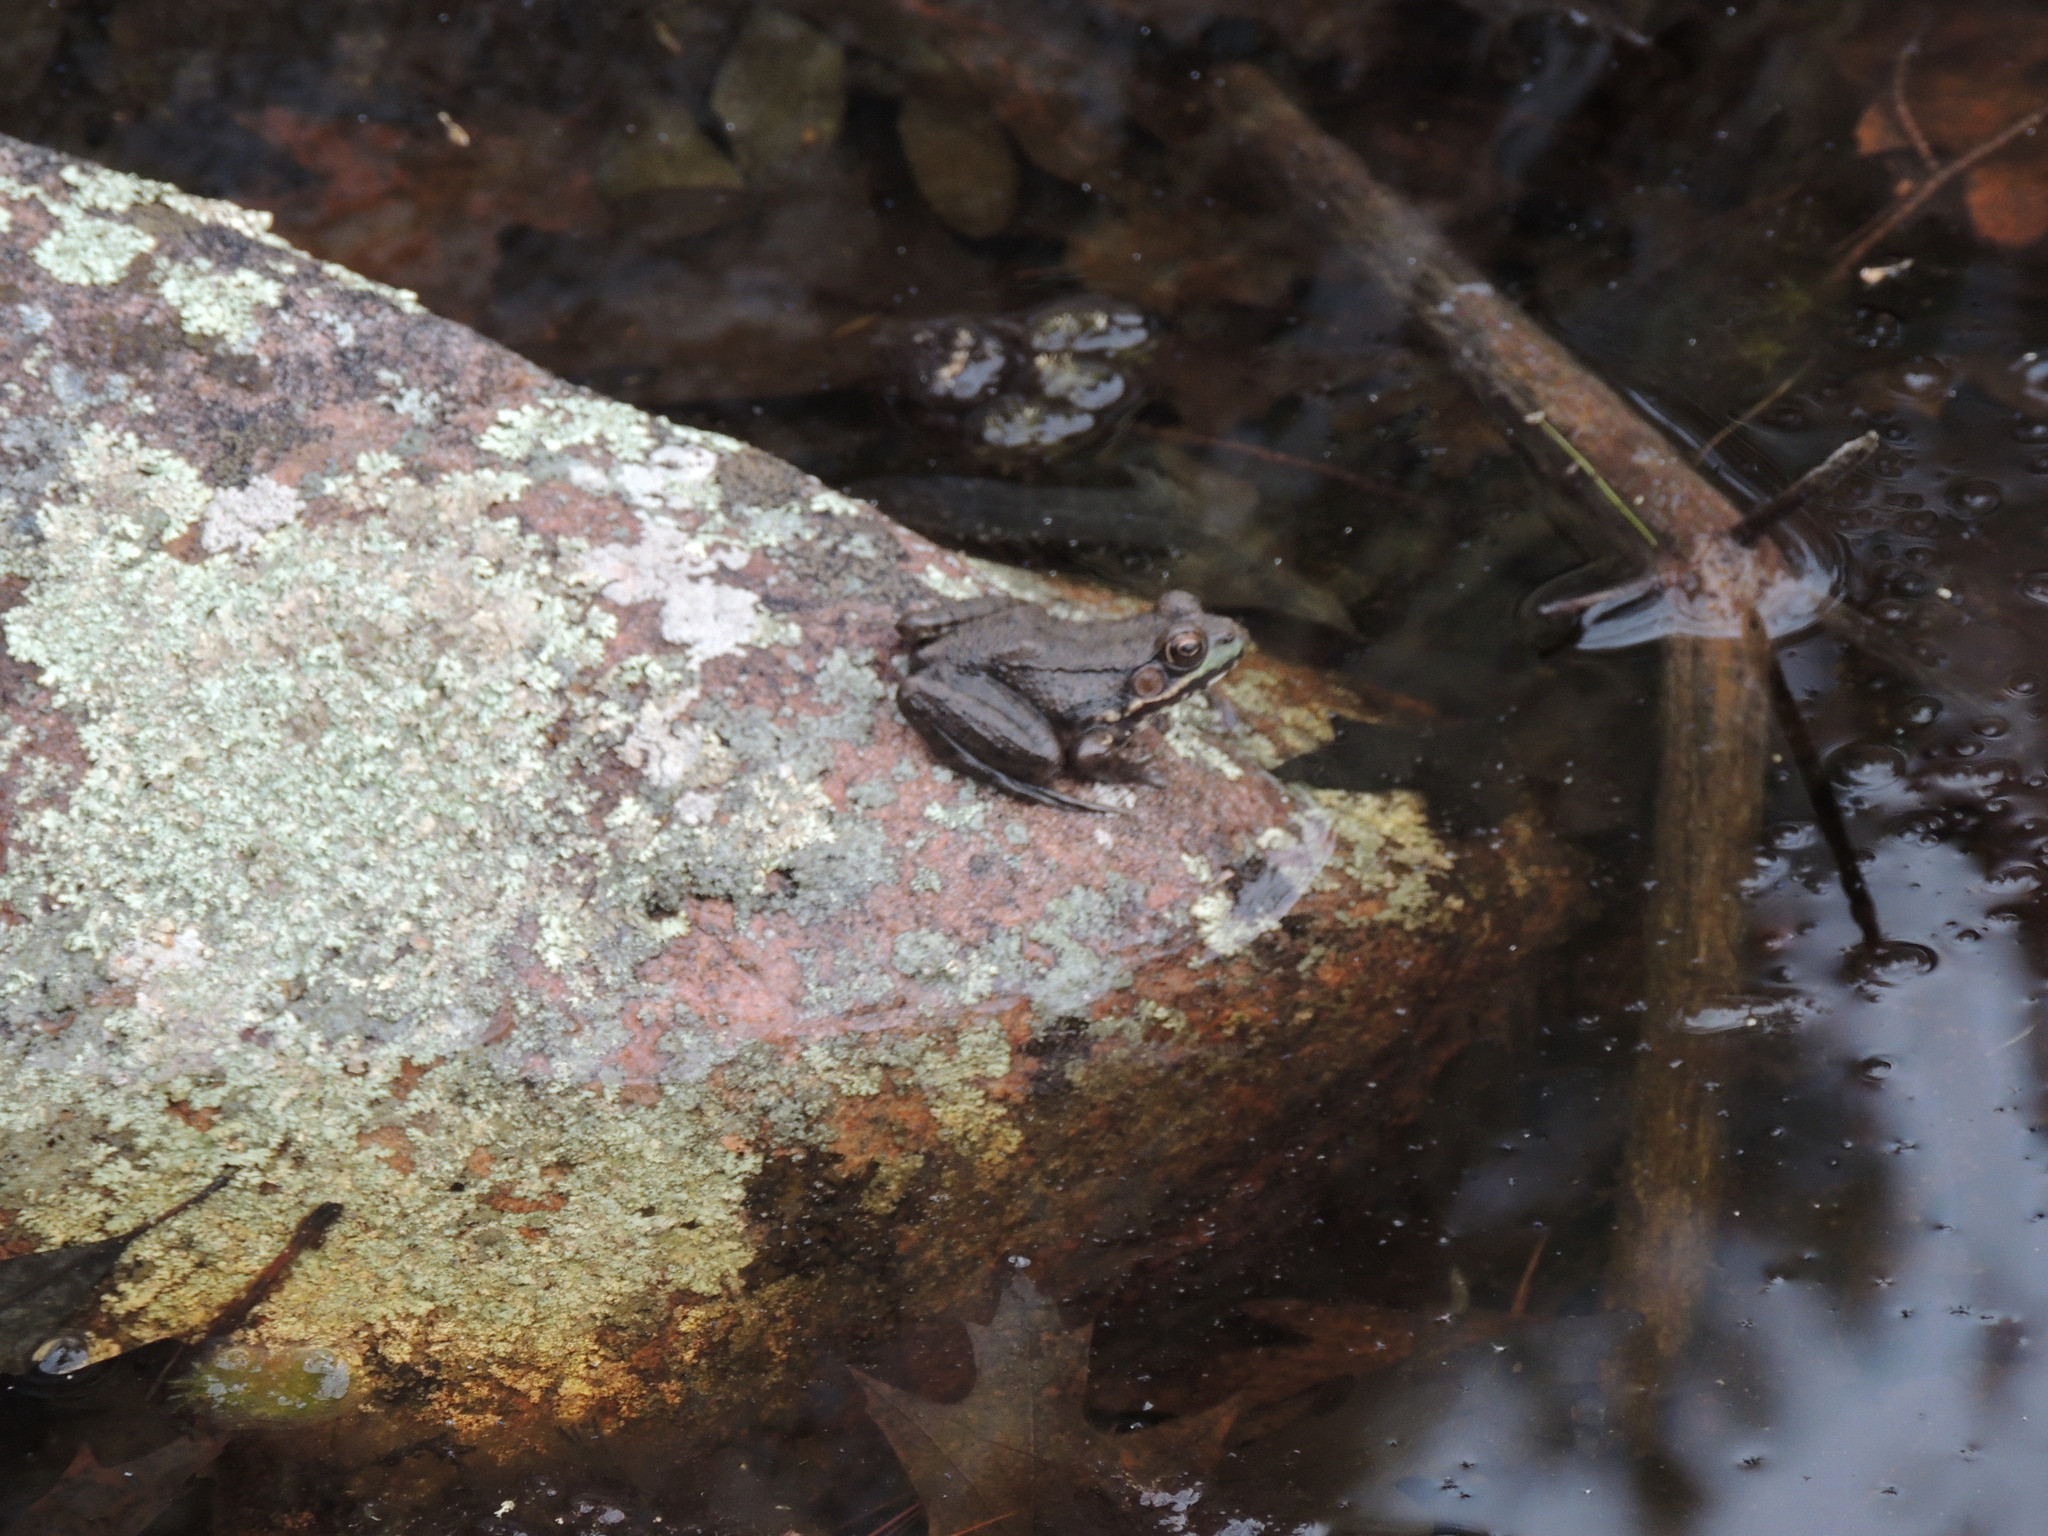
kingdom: Animalia
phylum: Chordata
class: Amphibia
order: Anura
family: Ranidae
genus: Lithobates
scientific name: Lithobates clamitans
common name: Green frog
